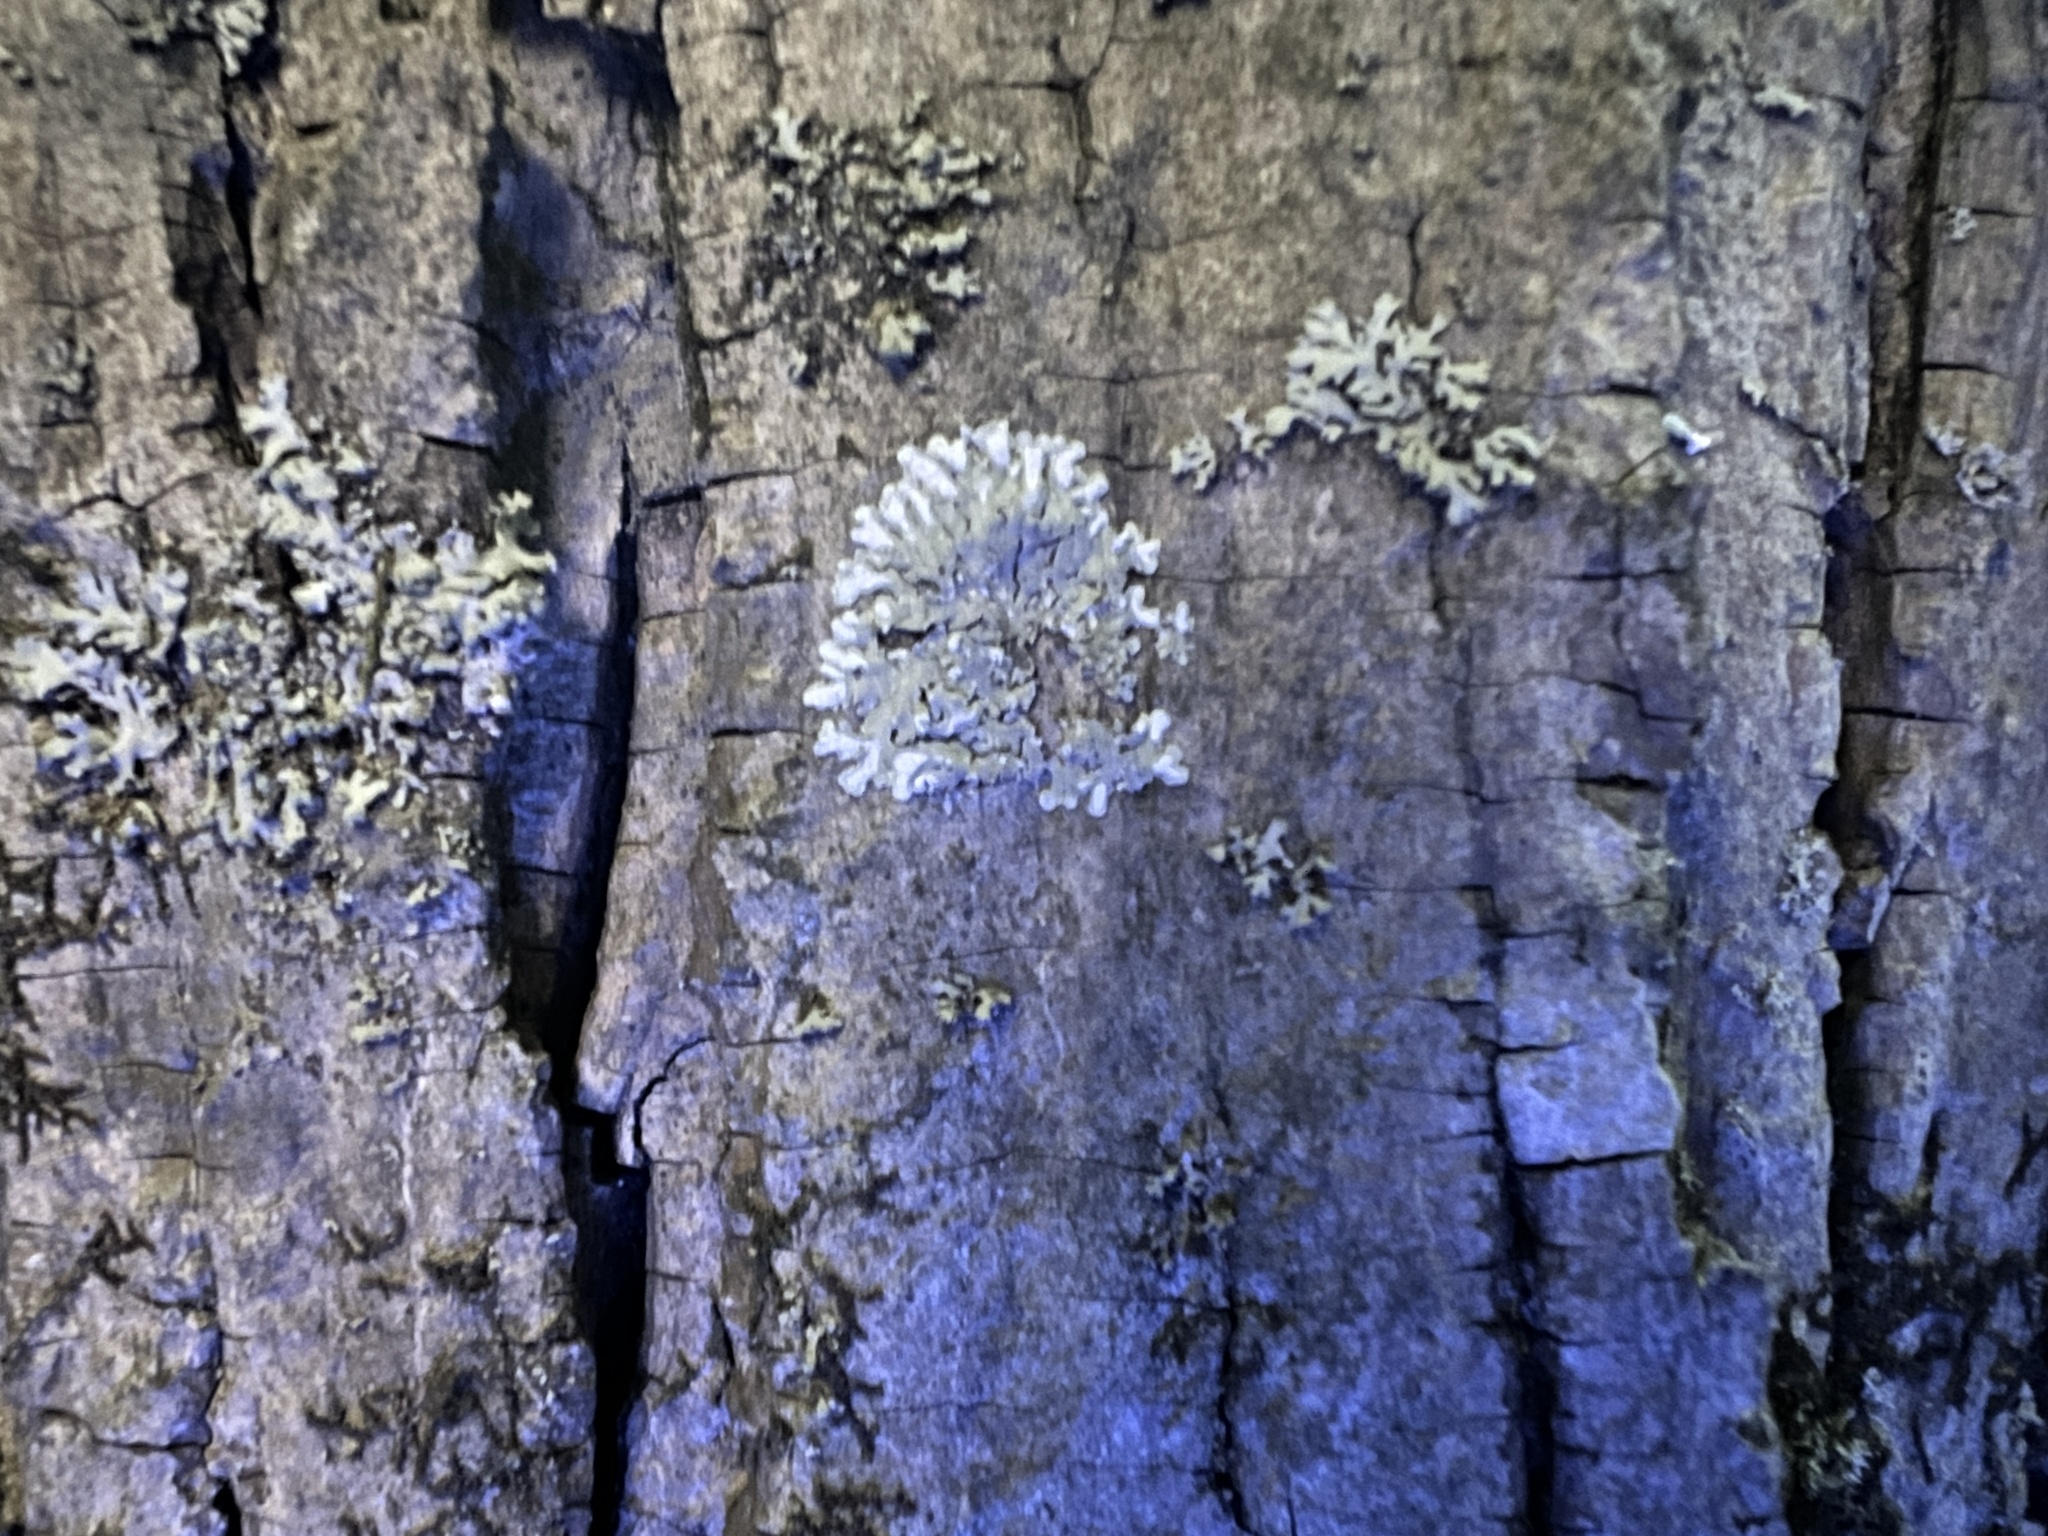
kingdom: Fungi
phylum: Ascomycota
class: Lecanoromycetes
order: Caliciales
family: Caliciaceae
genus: Pyxine
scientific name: Pyxine subcinerea
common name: Mustard lichen
